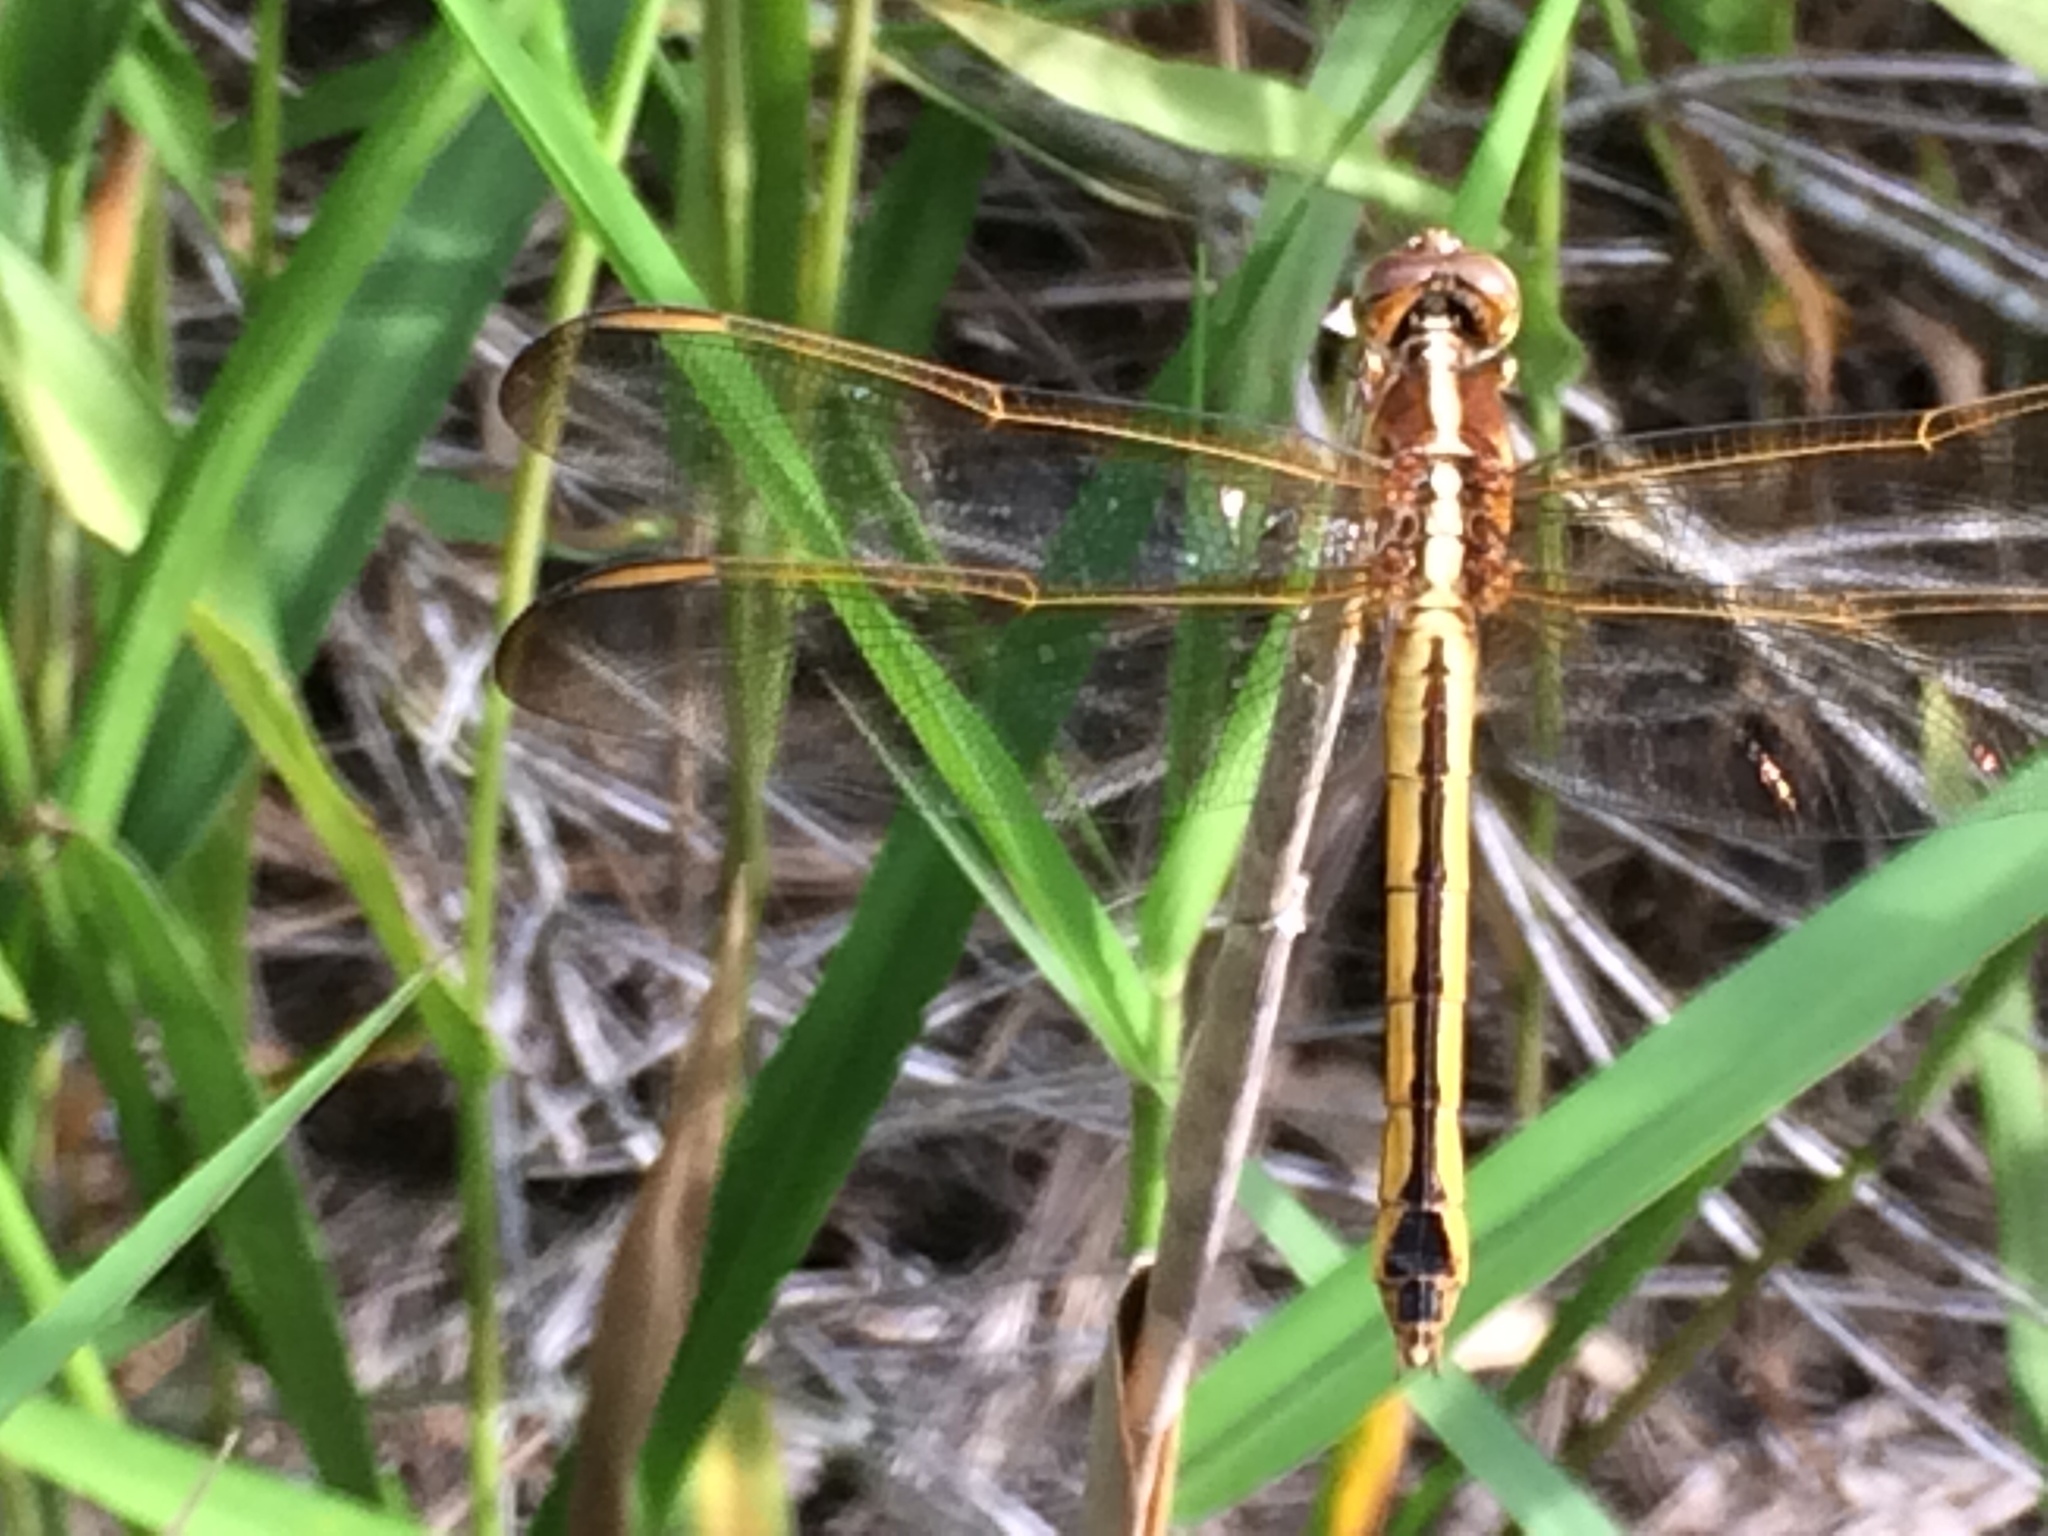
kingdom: Animalia
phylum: Arthropoda
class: Insecta
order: Odonata
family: Libellulidae
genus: Libellula
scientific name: Libellula needhami
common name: Needham's skimmer
